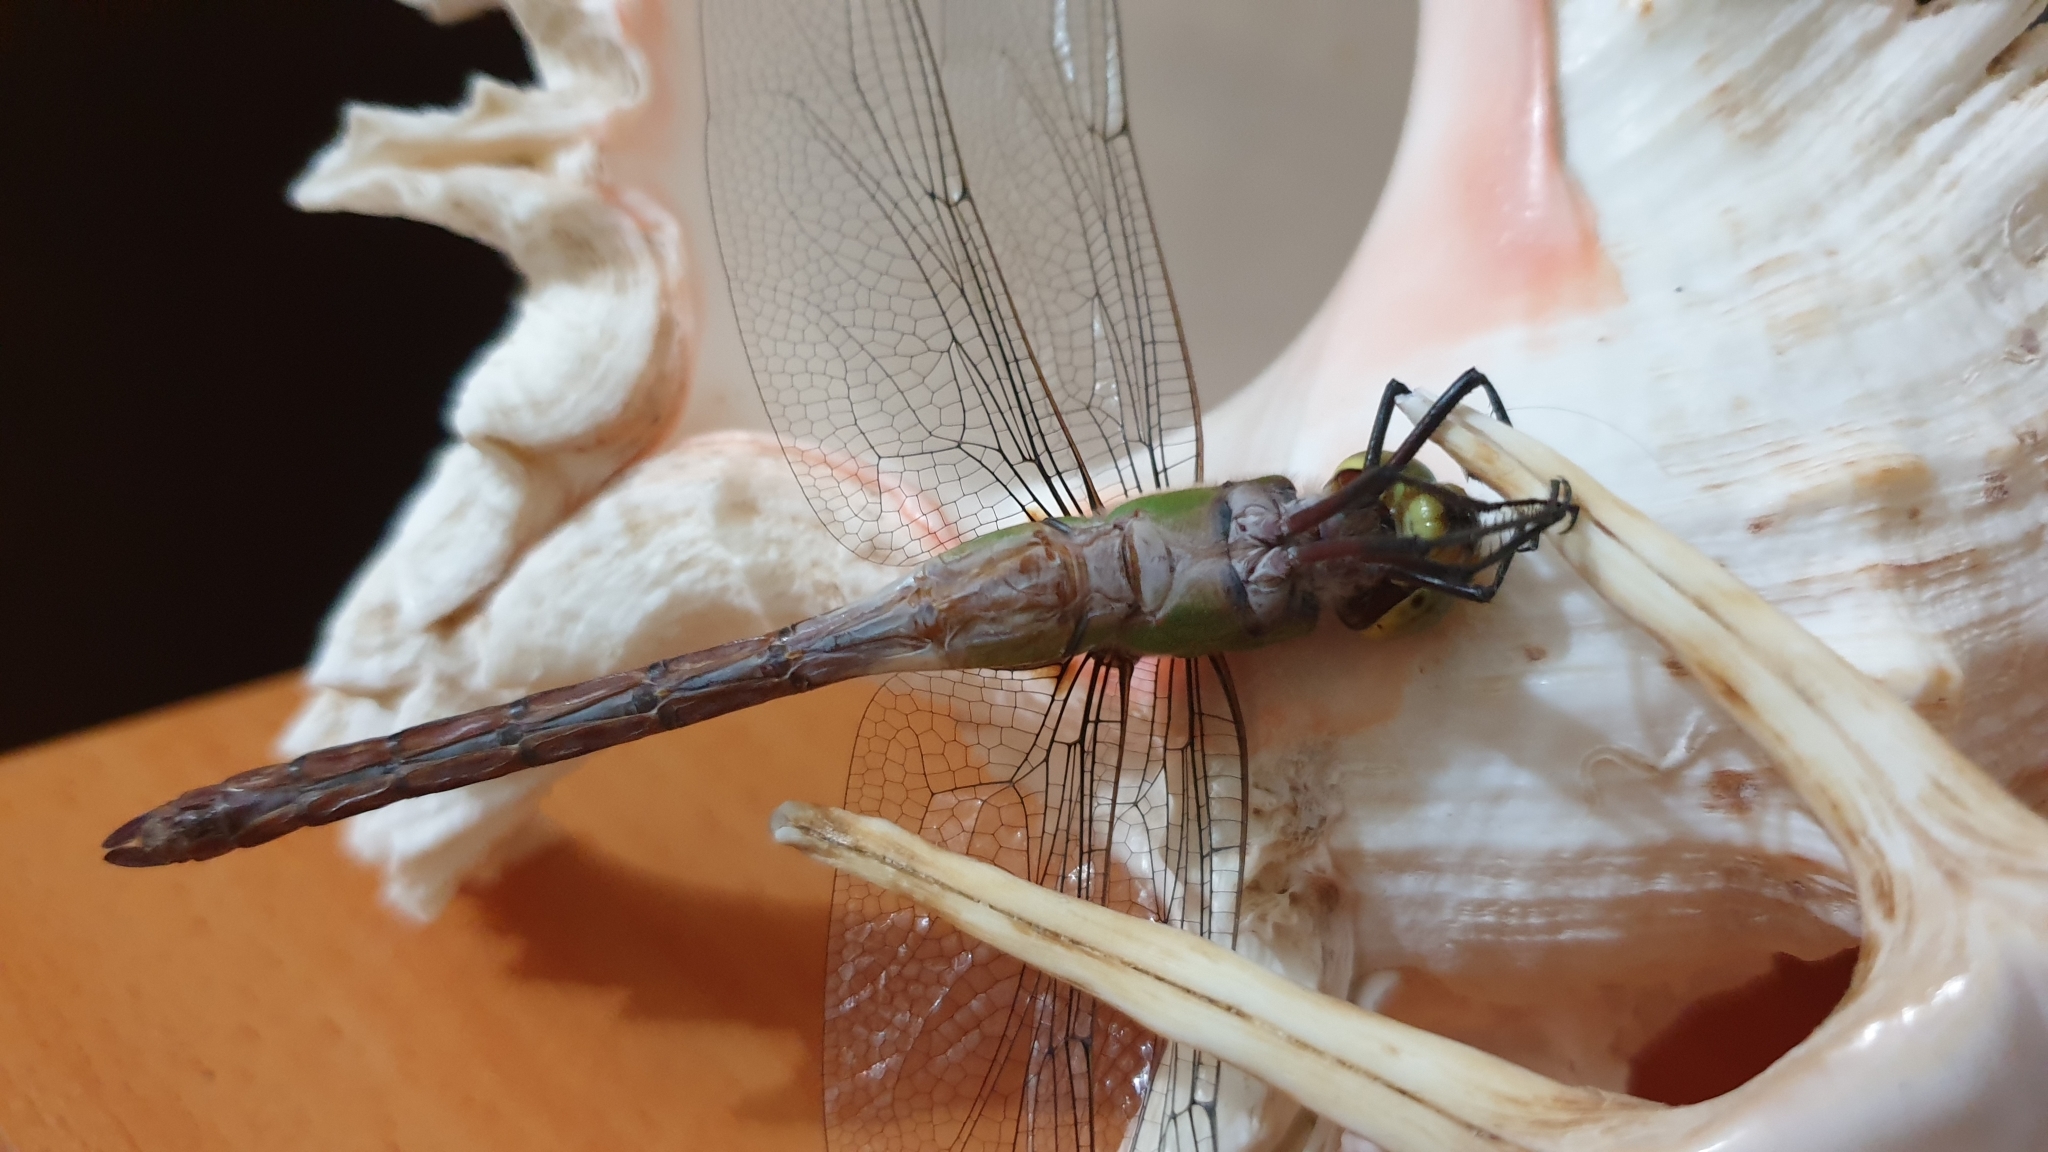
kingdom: Animalia
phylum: Arthropoda
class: Insecta
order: Odonata
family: Aeshnidae
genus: Anax
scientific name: Anax guttatus
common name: Emperor
